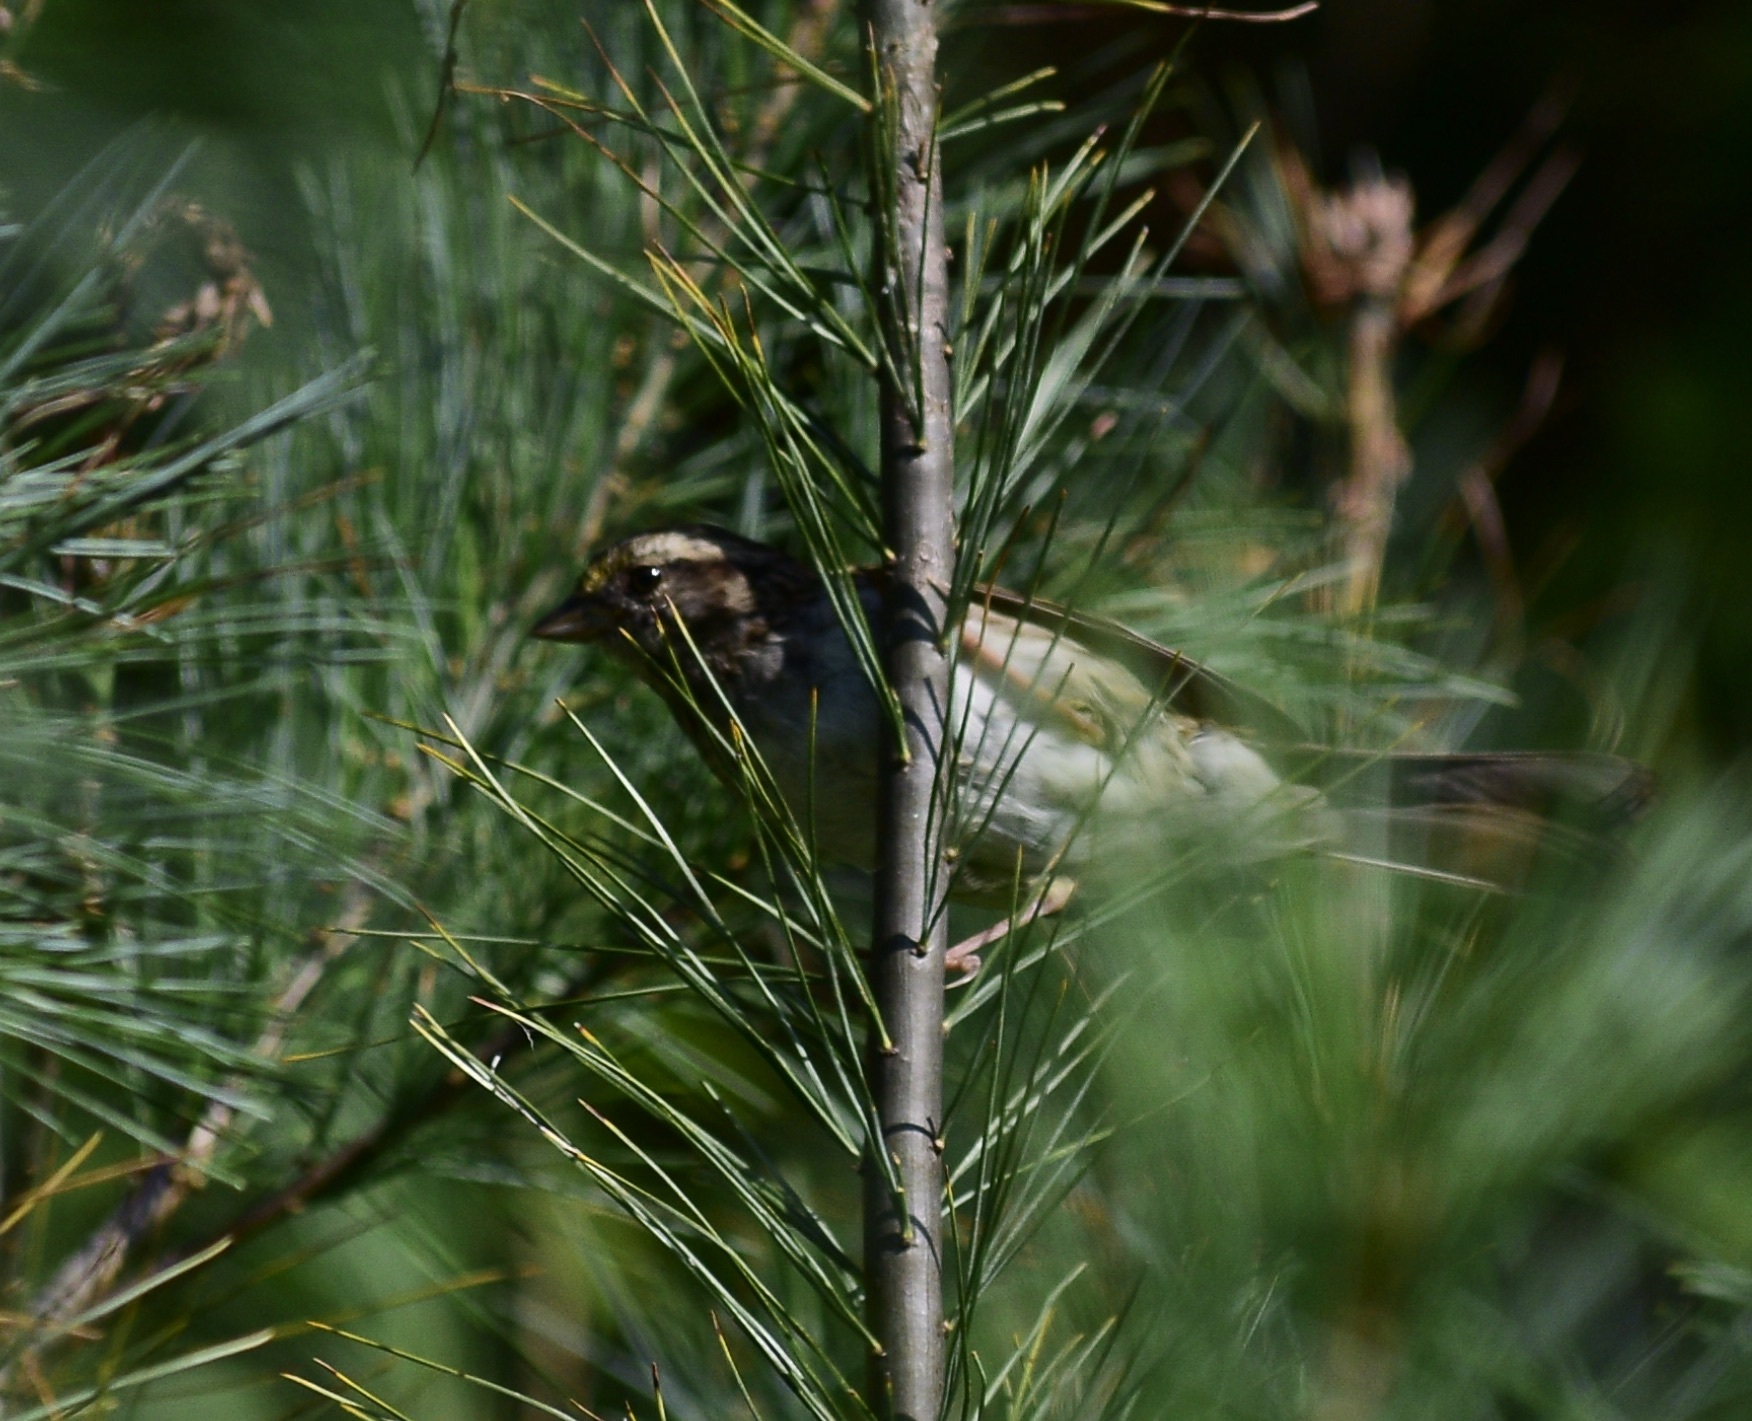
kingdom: Animalia
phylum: Chordata
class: Aves
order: Passeriformes
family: Passerellidae
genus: Zonotrichia
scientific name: Zonotrichia albicollis
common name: White-throated sparrow
